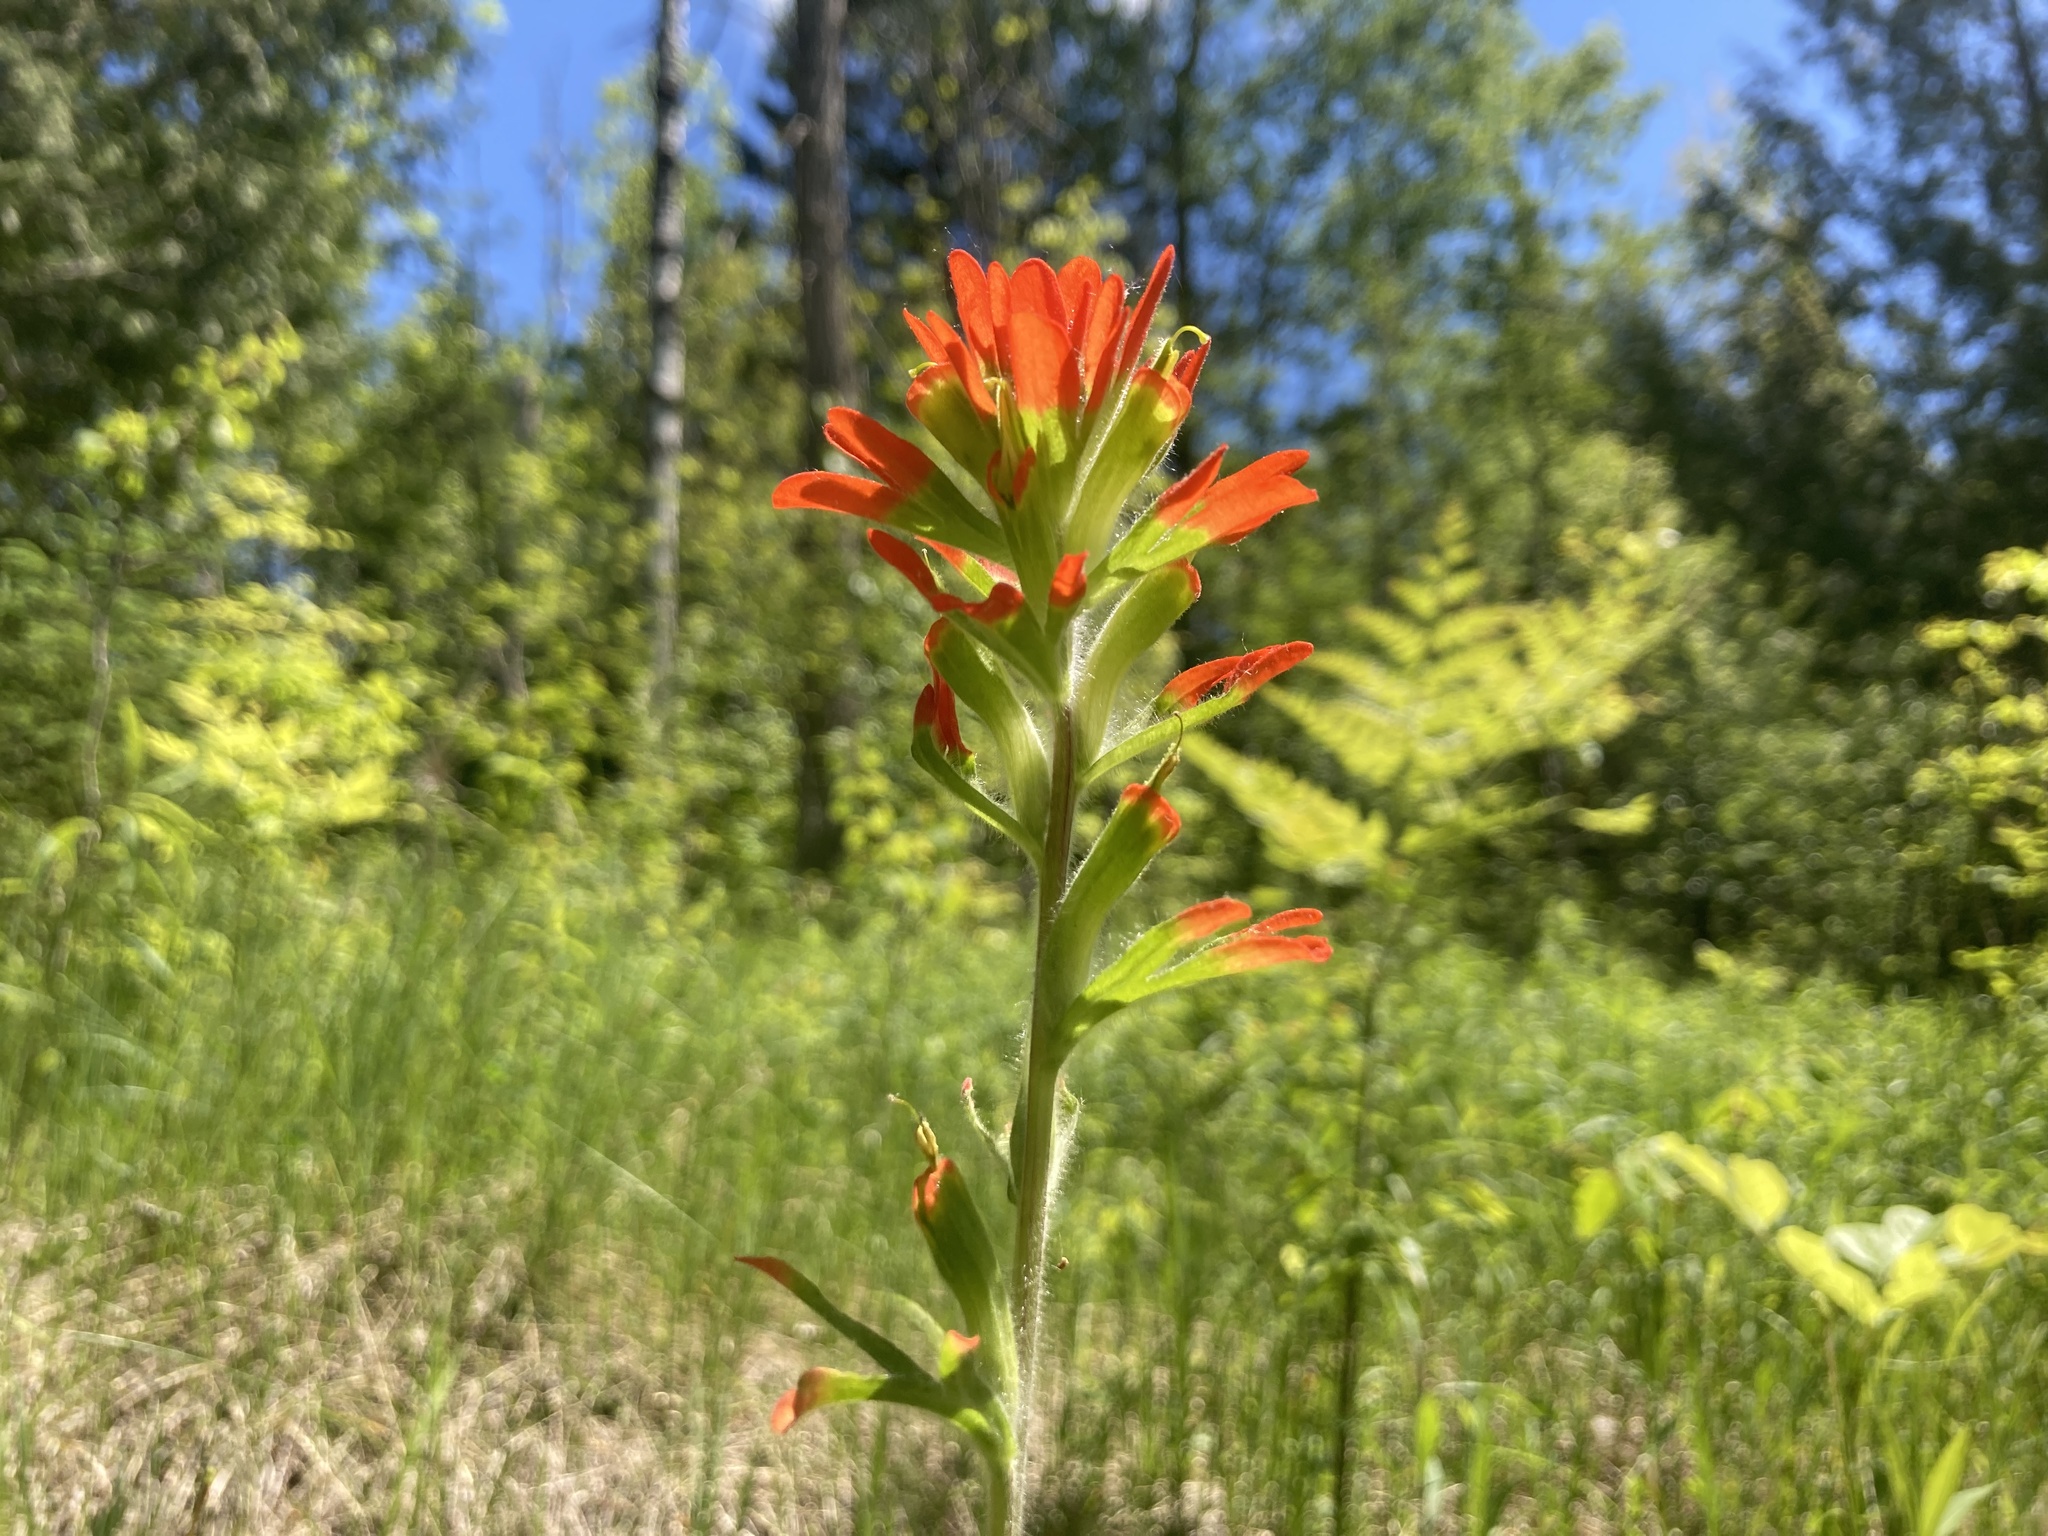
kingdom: Plantae
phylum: Tracheophyta
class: Magnoliopsida
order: Lamiales
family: Orobanchaceae
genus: Castilleja
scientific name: Castilleja coccinea
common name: Scarlet paintbrush
